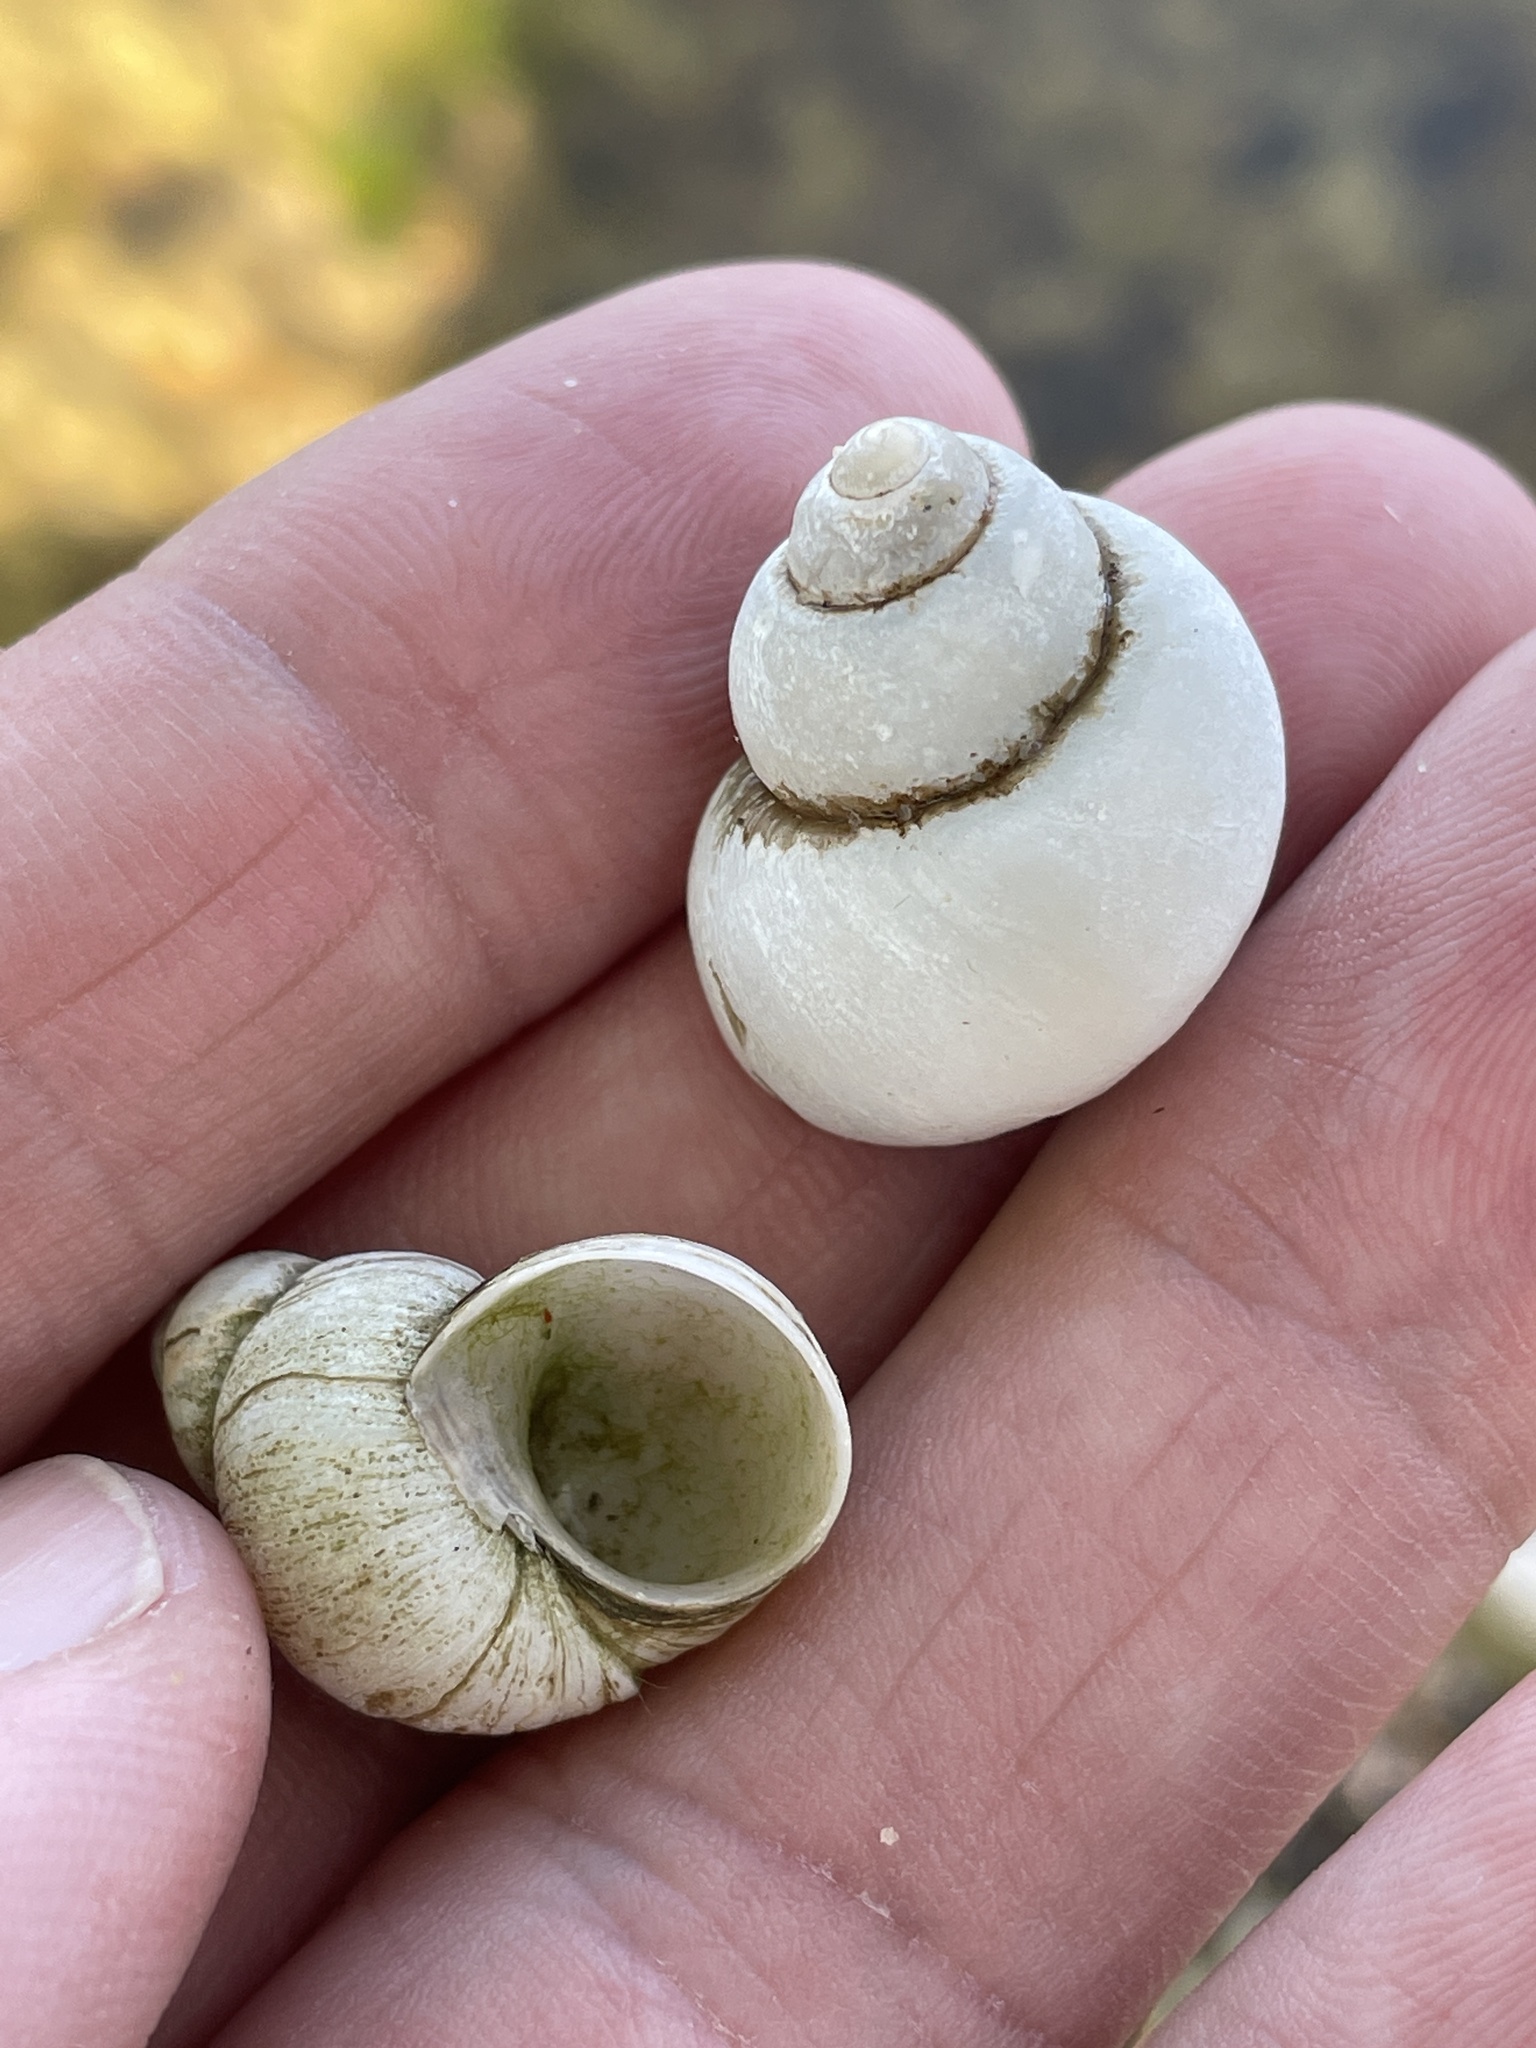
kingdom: Animalia
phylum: Mollusca
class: Gastropoda
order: Architaenioglossa
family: Viviparidae
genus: Cipangopaludina
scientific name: Cipangopaludina chinensis
